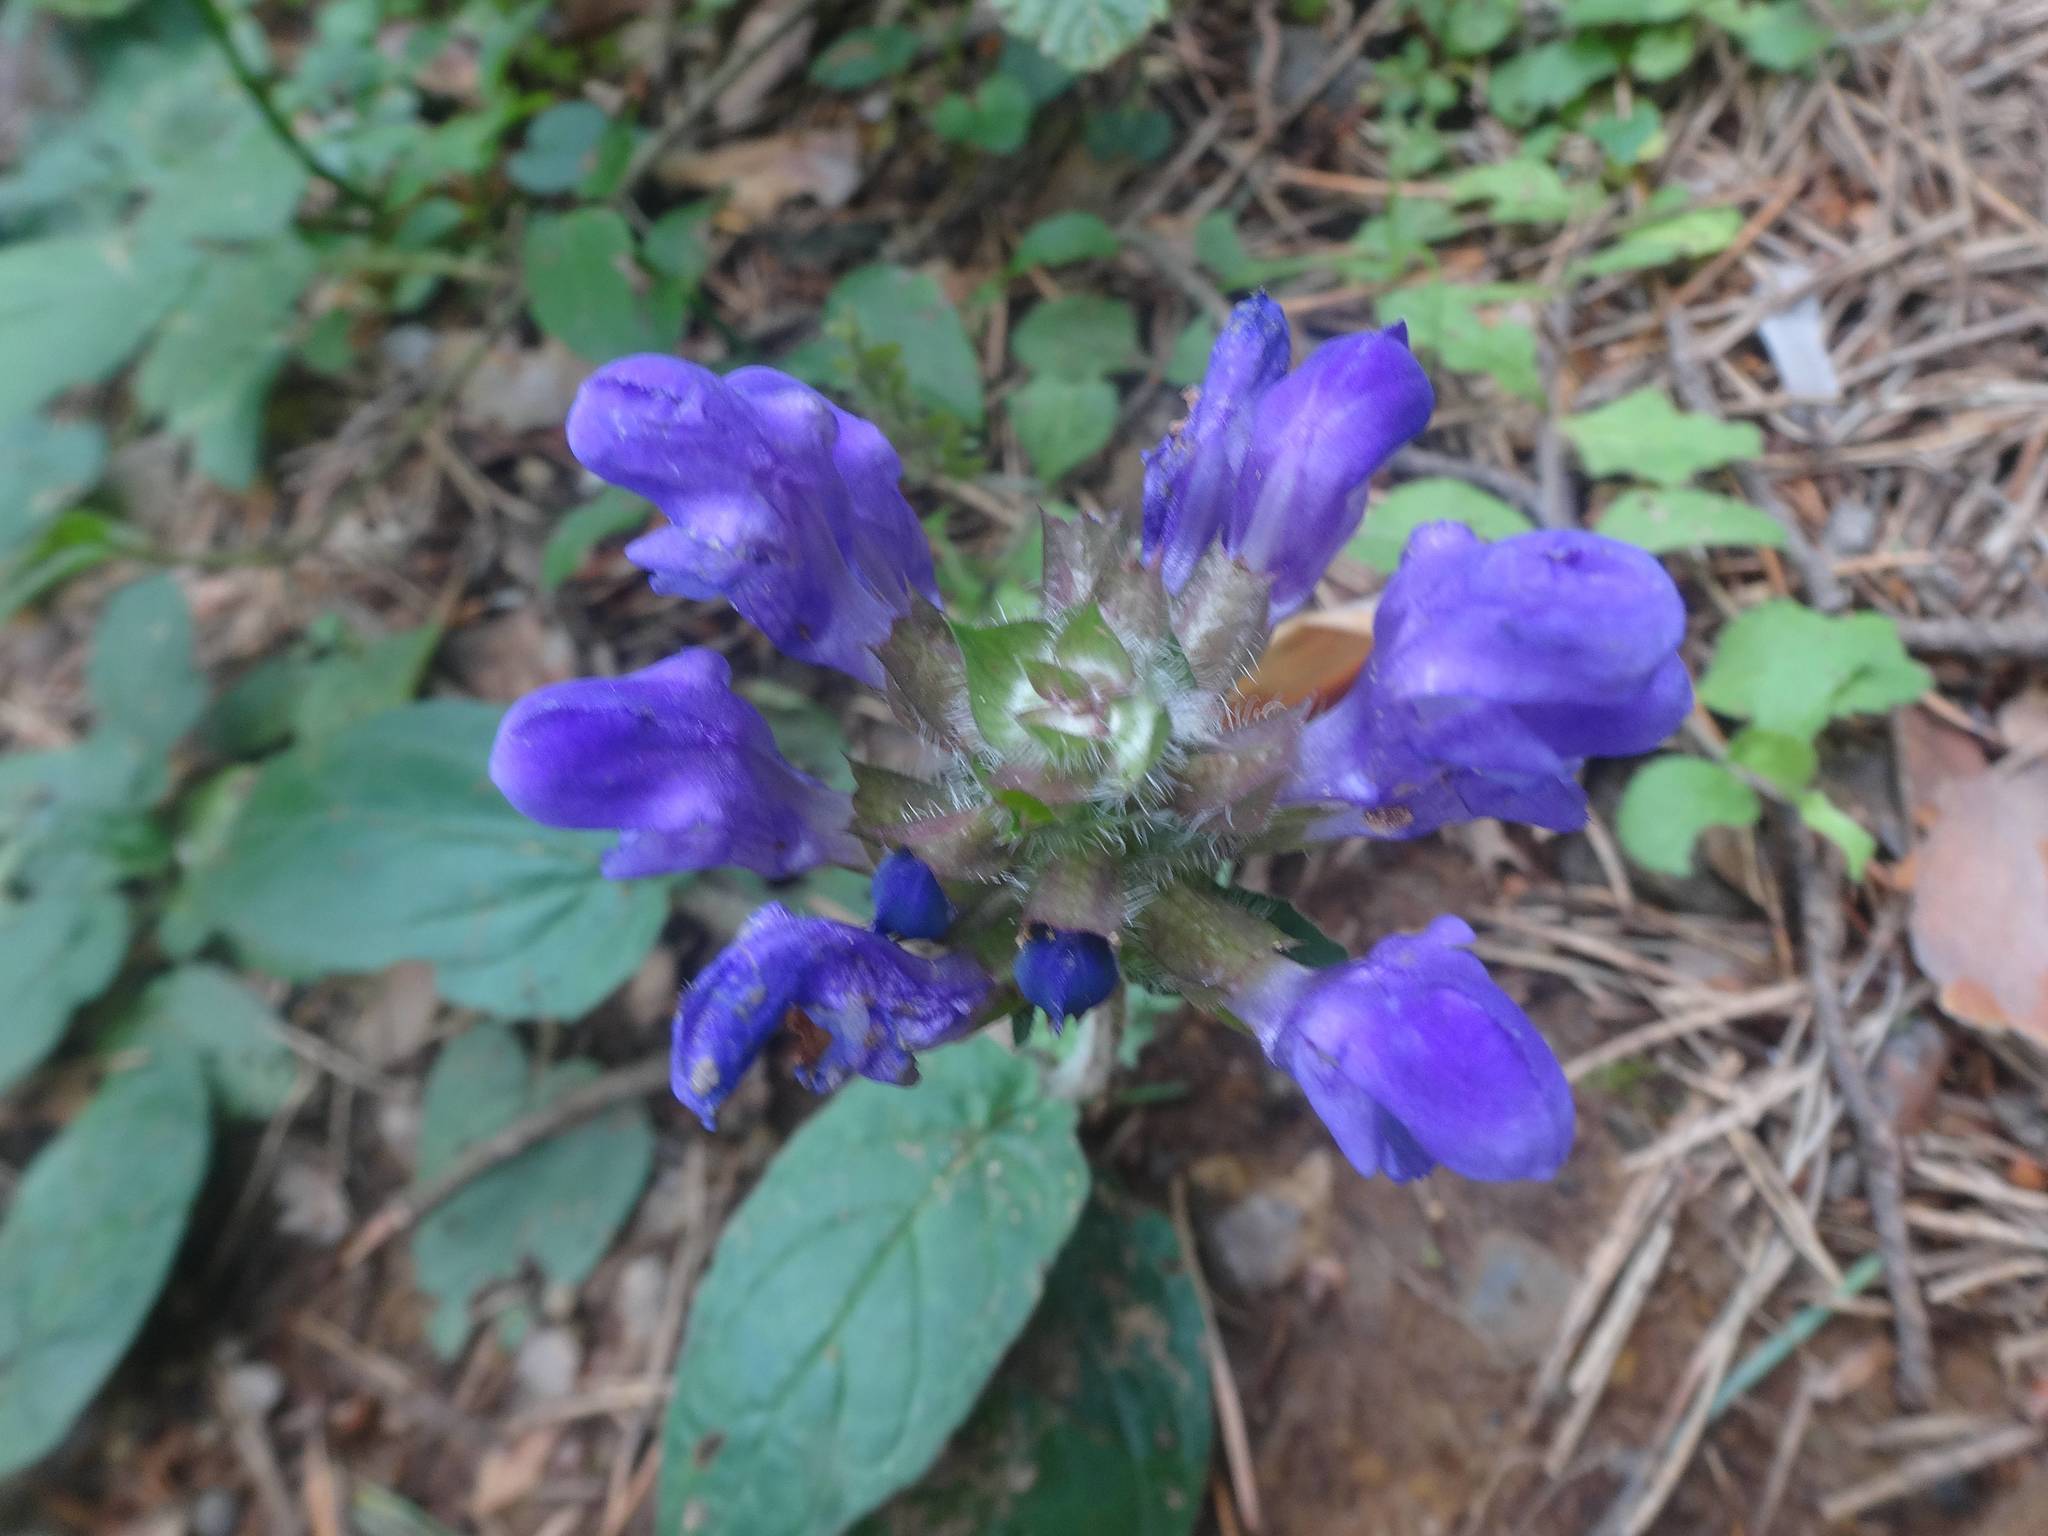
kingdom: Plantae
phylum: Tracheophyta
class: Magnoliopsida
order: Lamiales
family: Lamiaceae
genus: Prunella
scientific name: Prunella grandiflora
